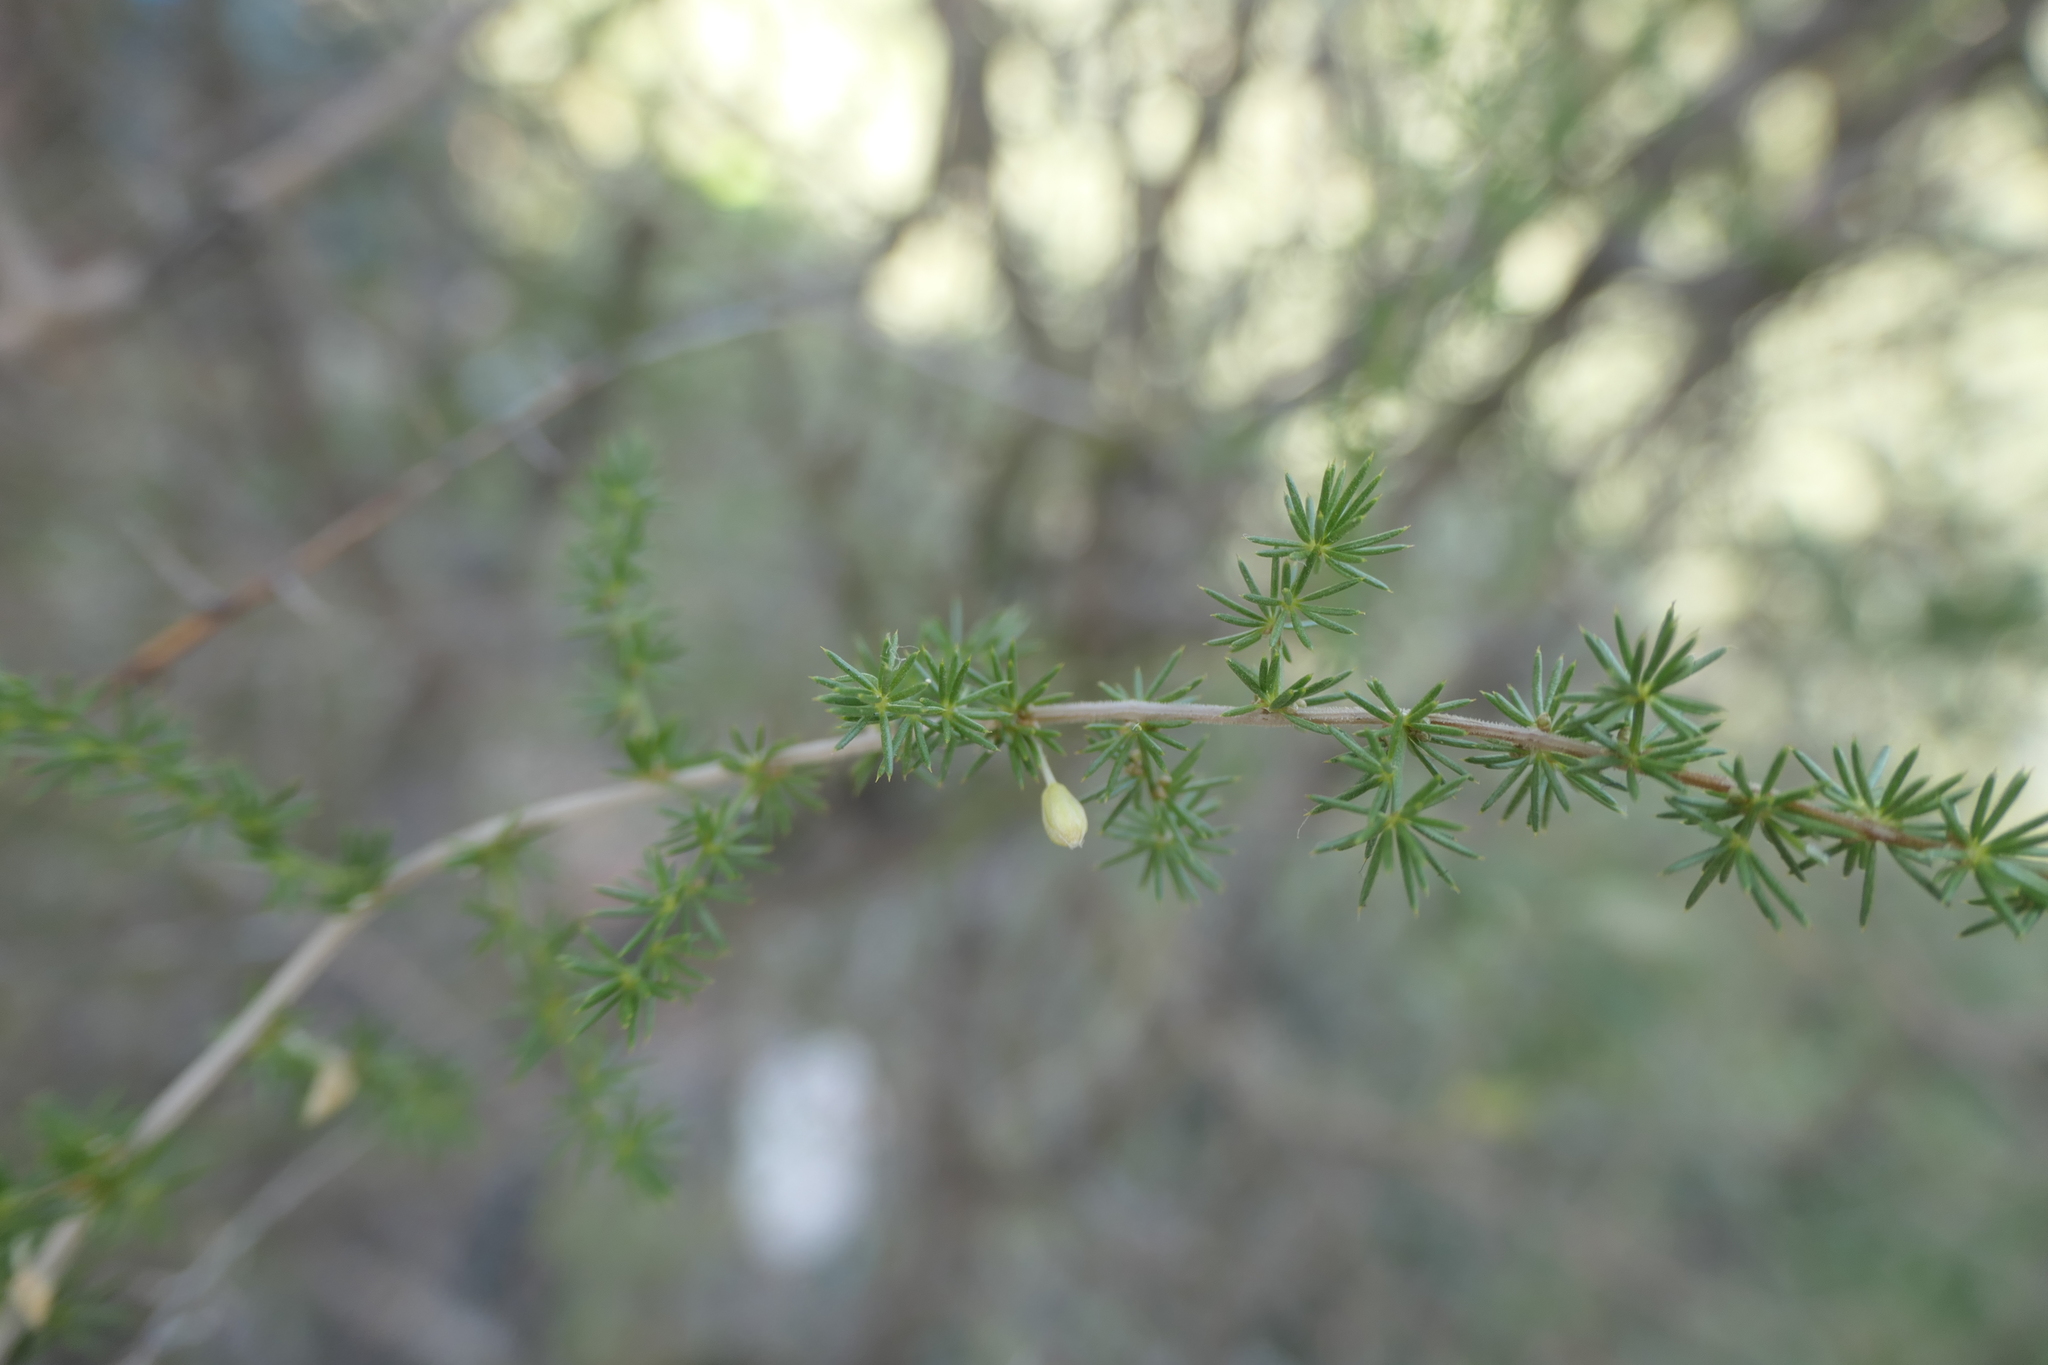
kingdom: Plantae
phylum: Tracheophyta
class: Liliopsida
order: Asparagales
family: Asparagaceae
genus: Asparagus
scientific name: Asparagus acutifolius
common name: Wild asparagus
